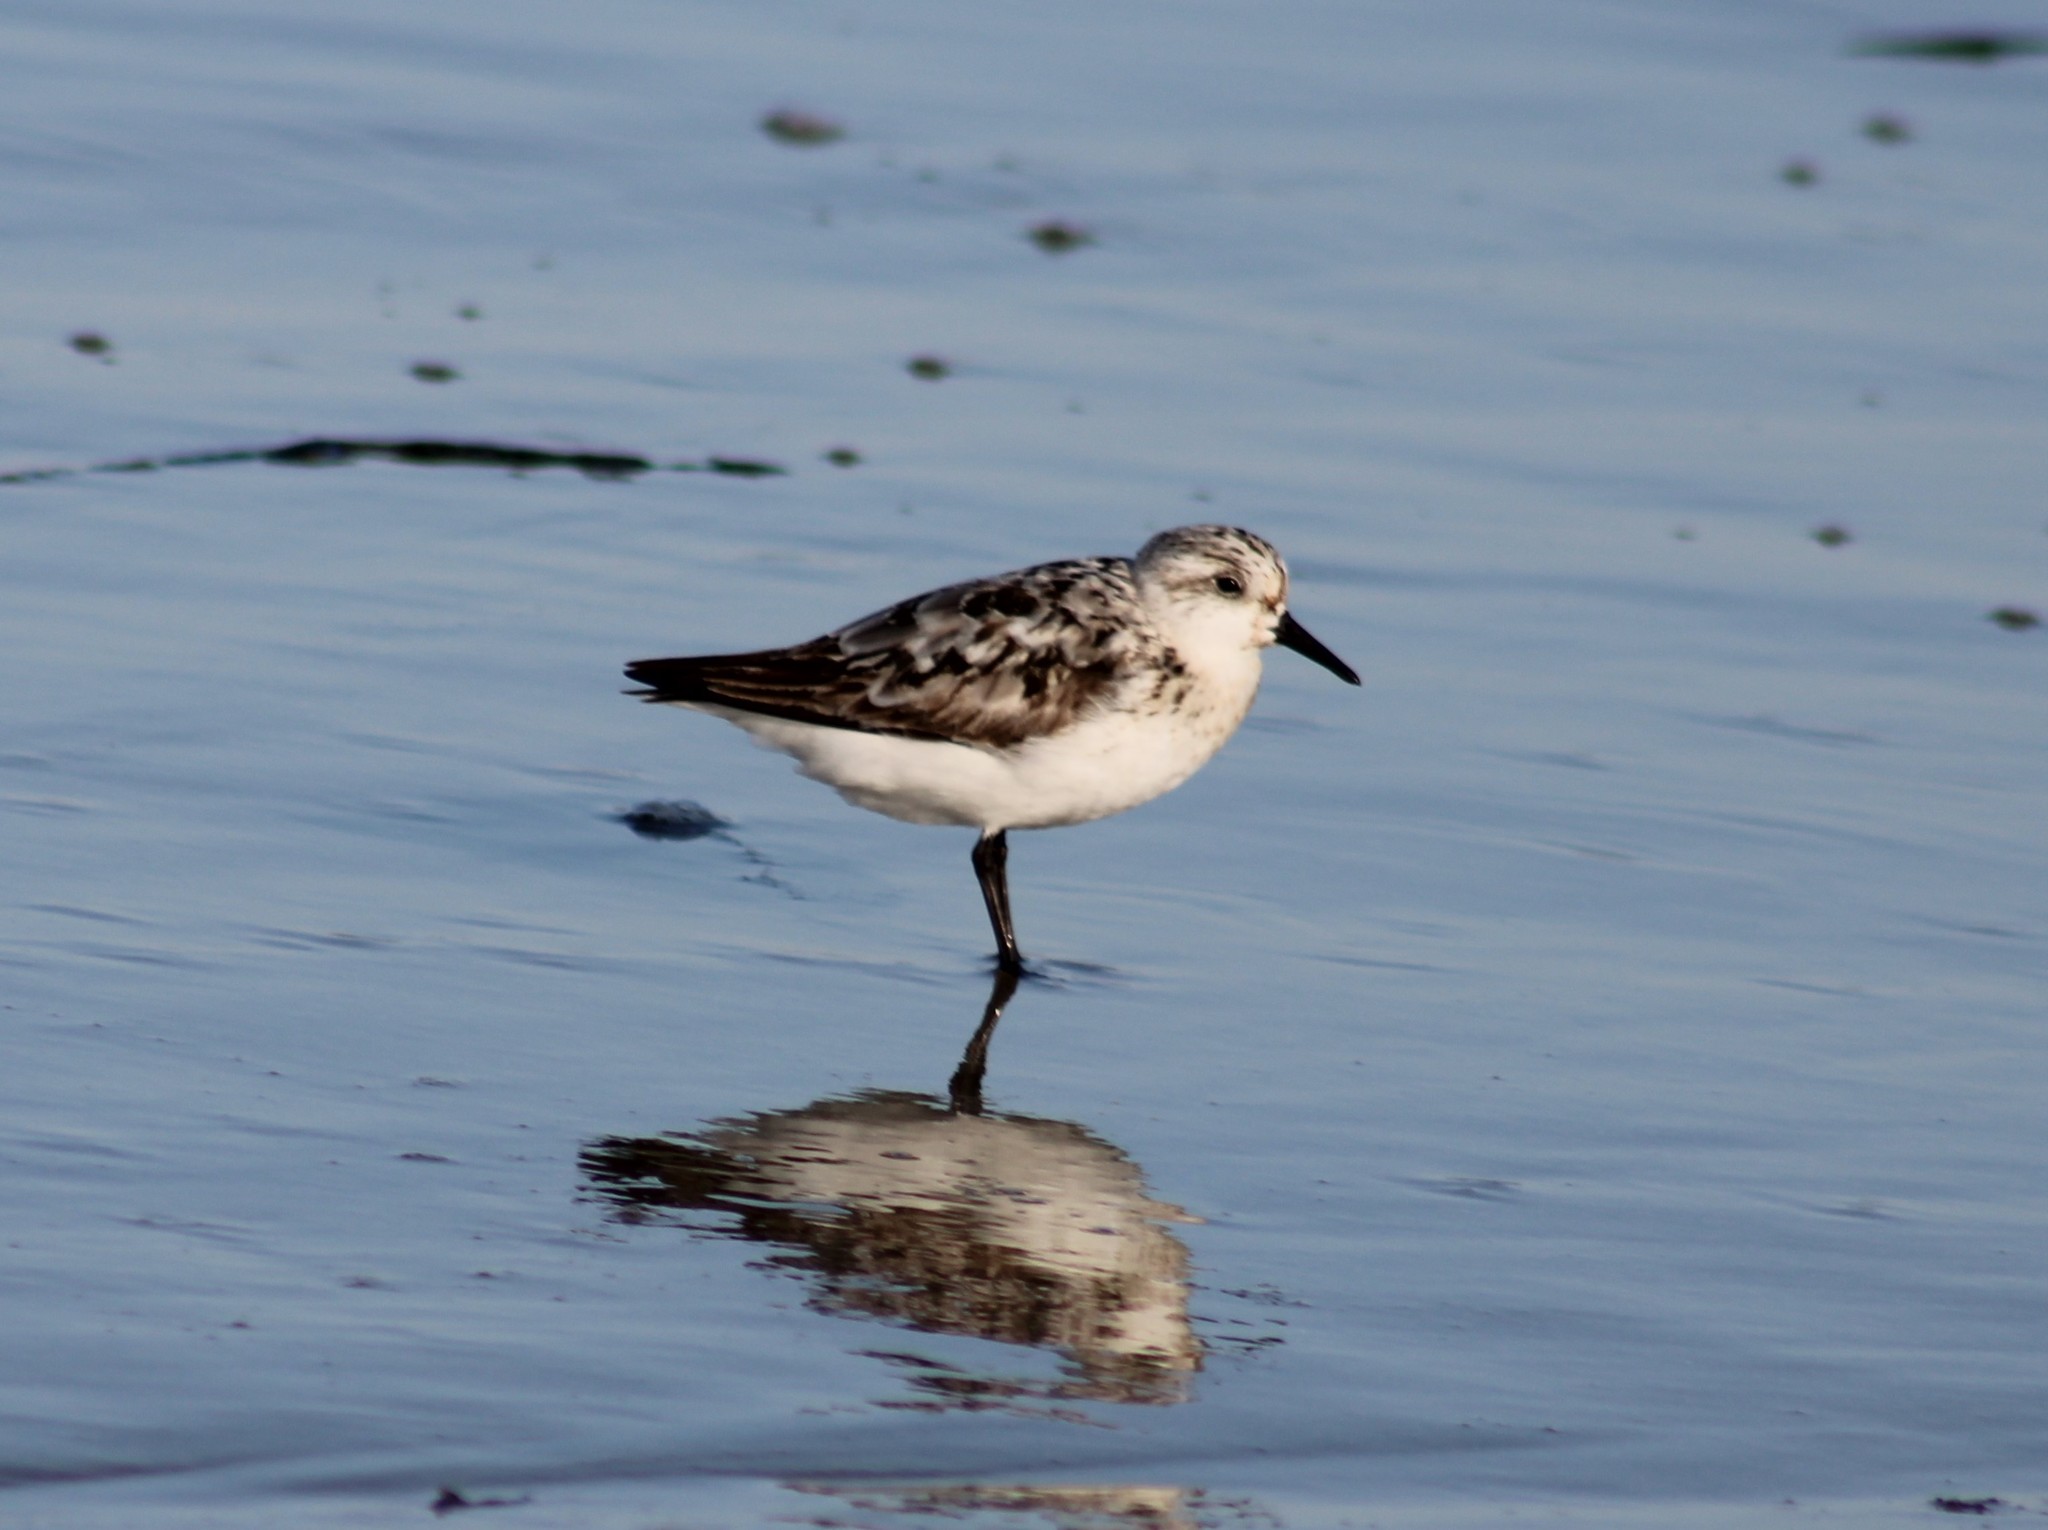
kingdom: Animalia
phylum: Chordata
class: Aves
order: Charadriiformes
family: Scolopacidae
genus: Calidris
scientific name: Calidris alba
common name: Sanderling
